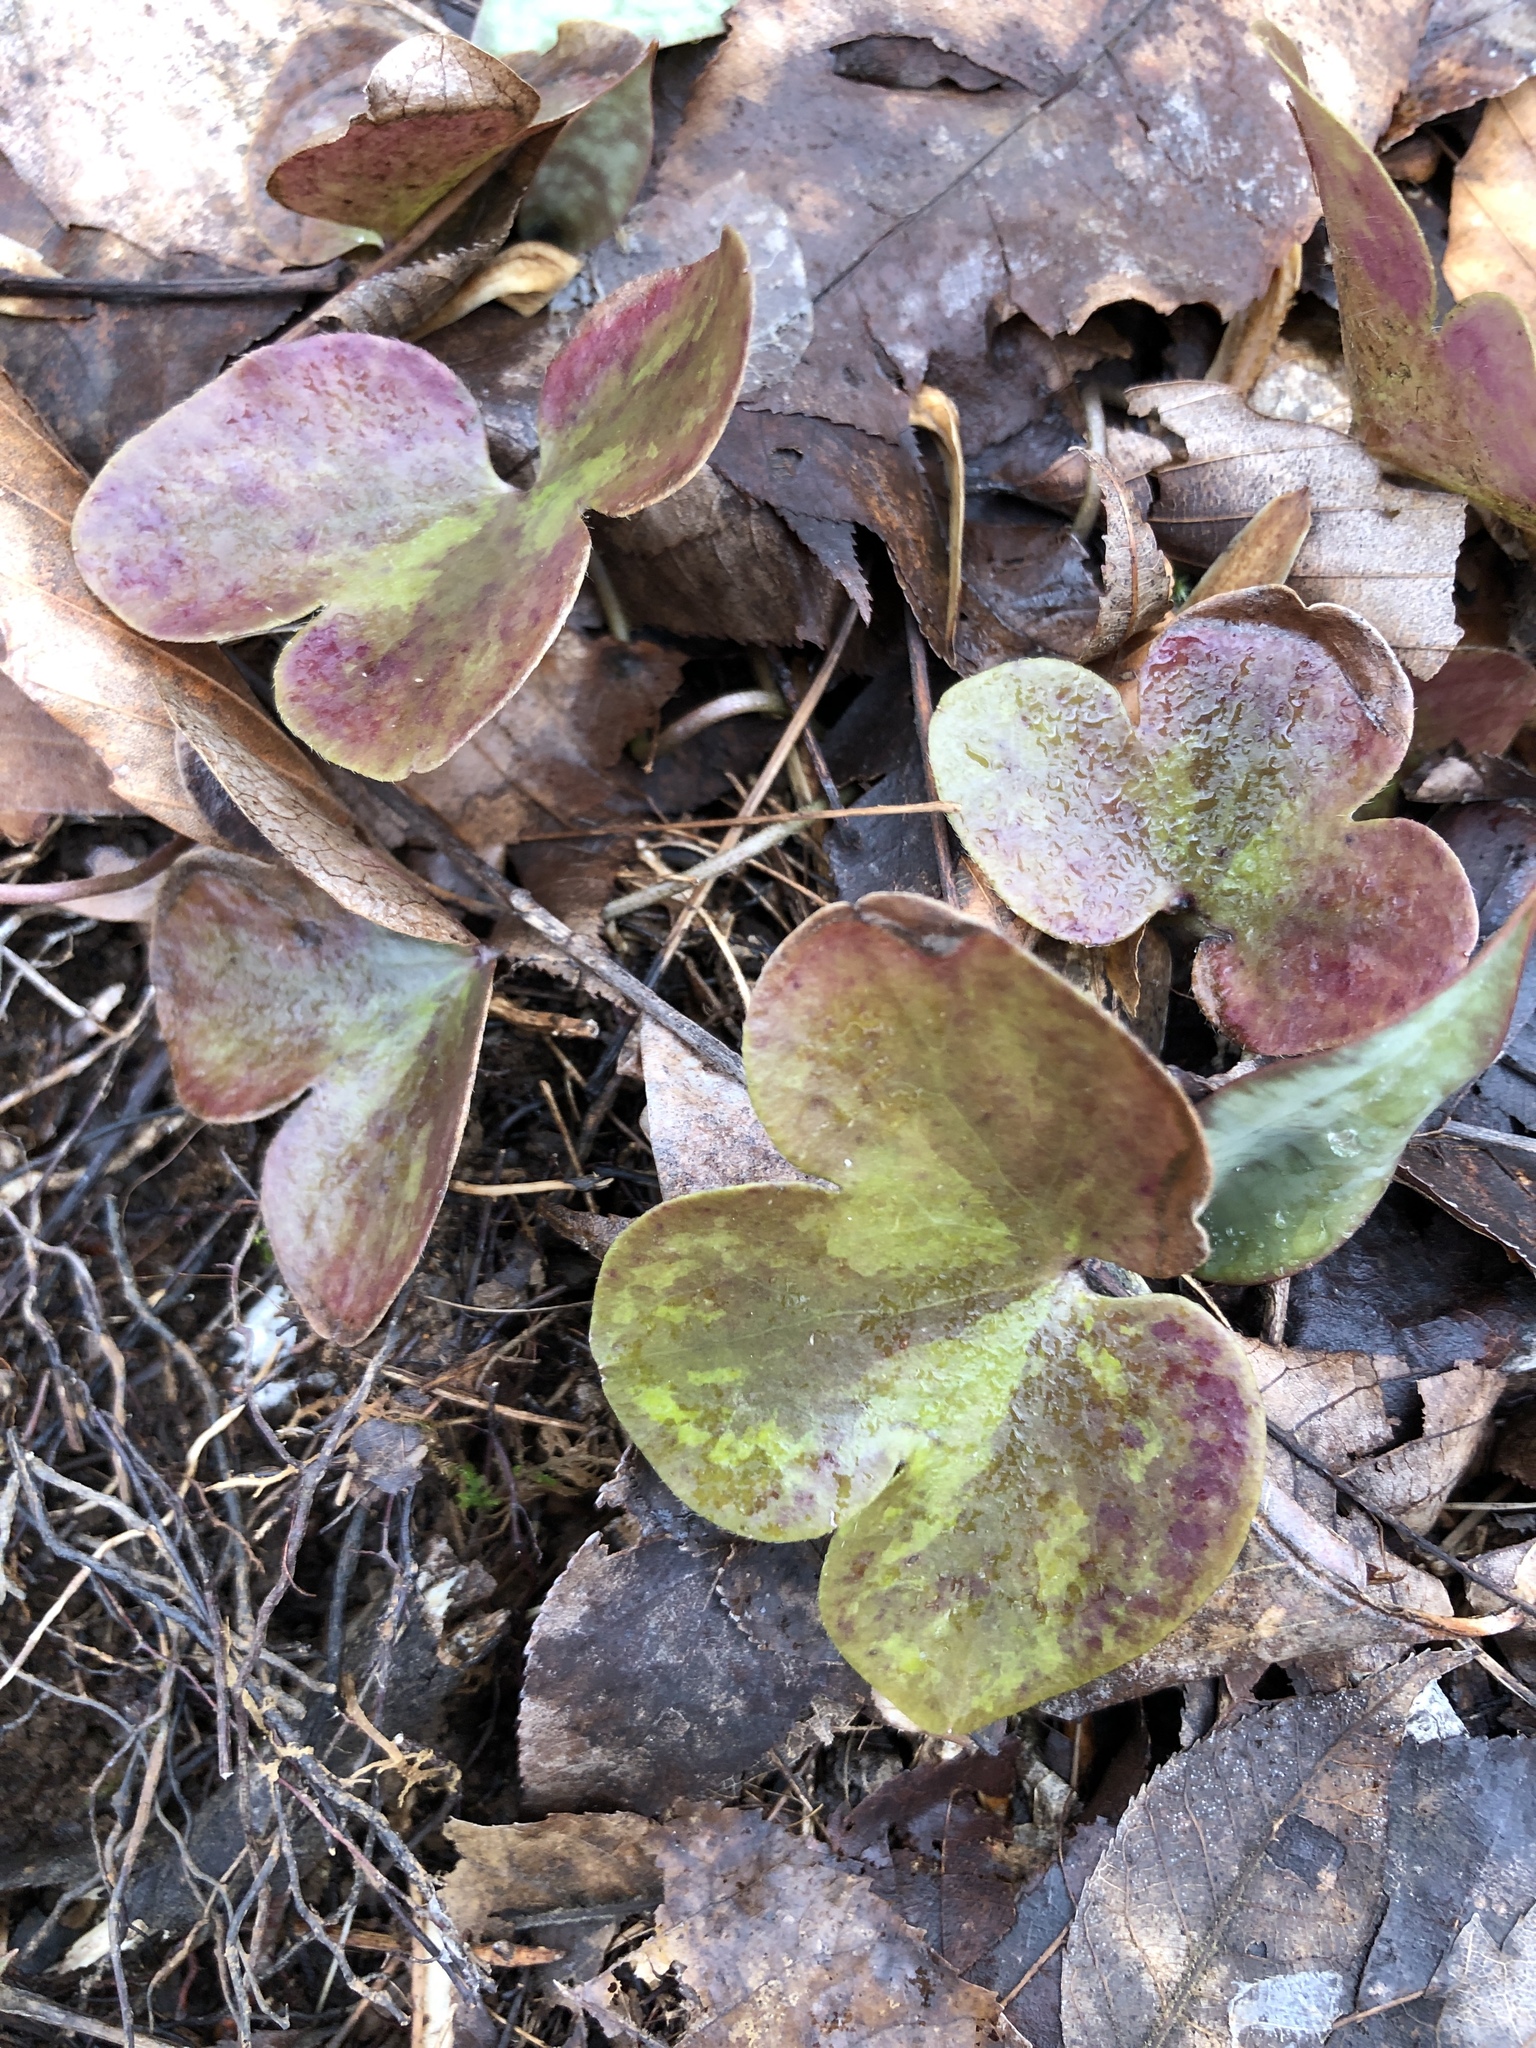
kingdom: Plantae
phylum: Tracheophyta
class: Magnoliopsida
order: Ranunculales
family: Ranunculaceae
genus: Hepatica
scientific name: Hepatica americana
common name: American hepatica
